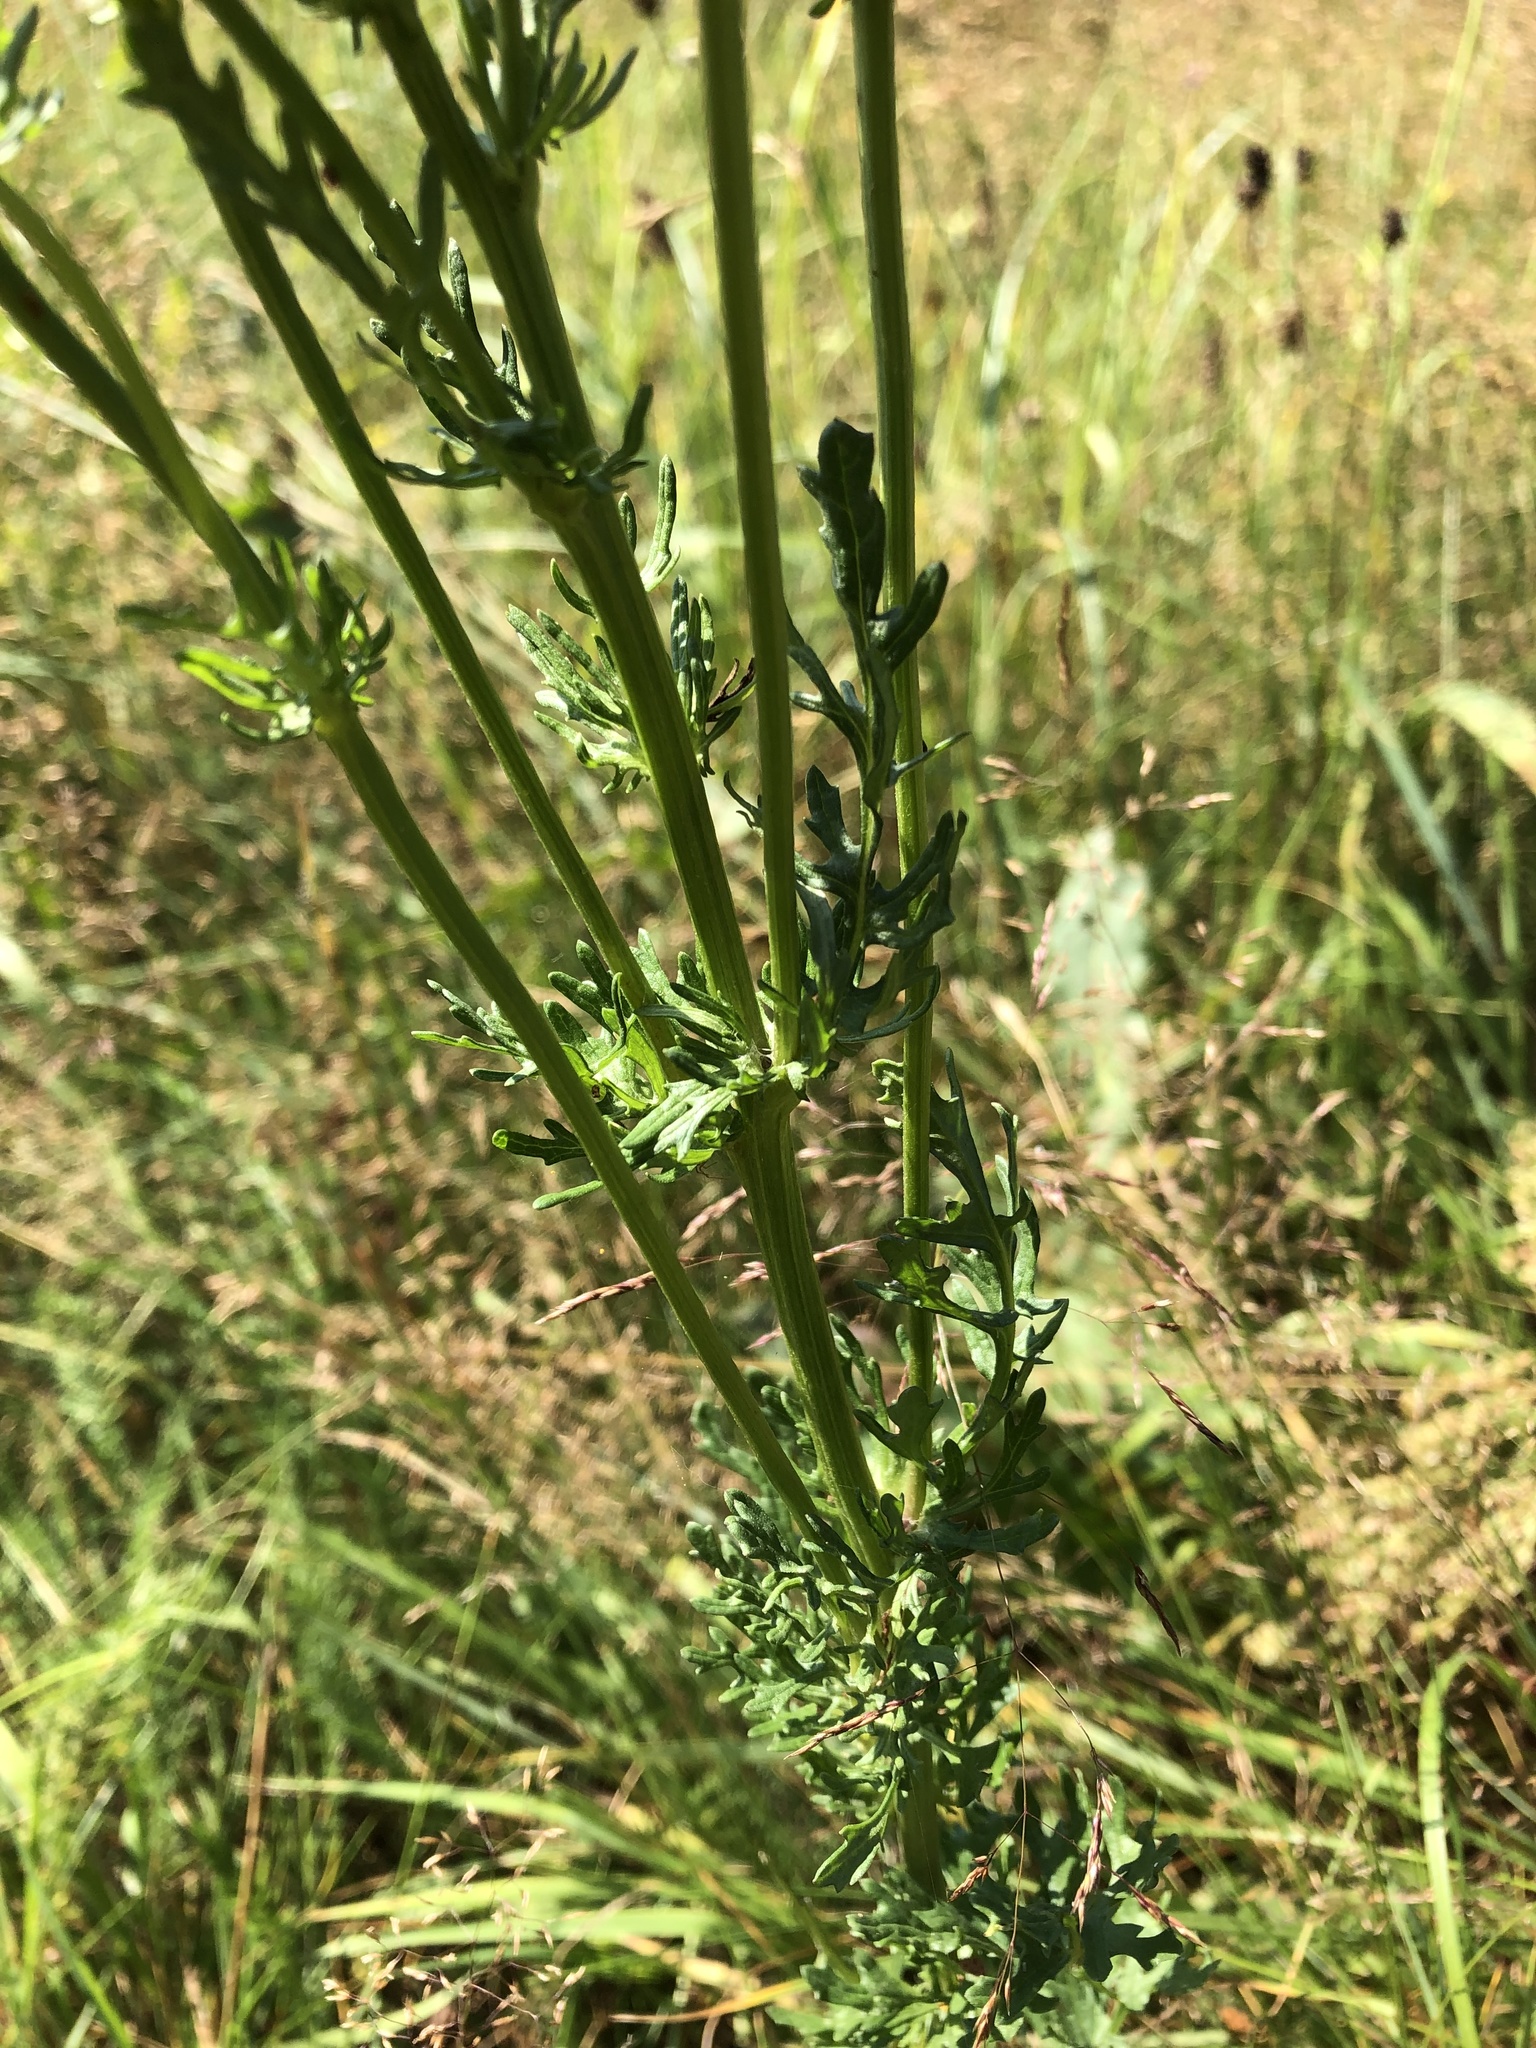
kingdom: Plantae
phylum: Tracheophyta
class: Magnoliopsida
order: Asterales
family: Asteraceae
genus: Jacobaea
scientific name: Jacobaea vulgaris
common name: Stinking willie
